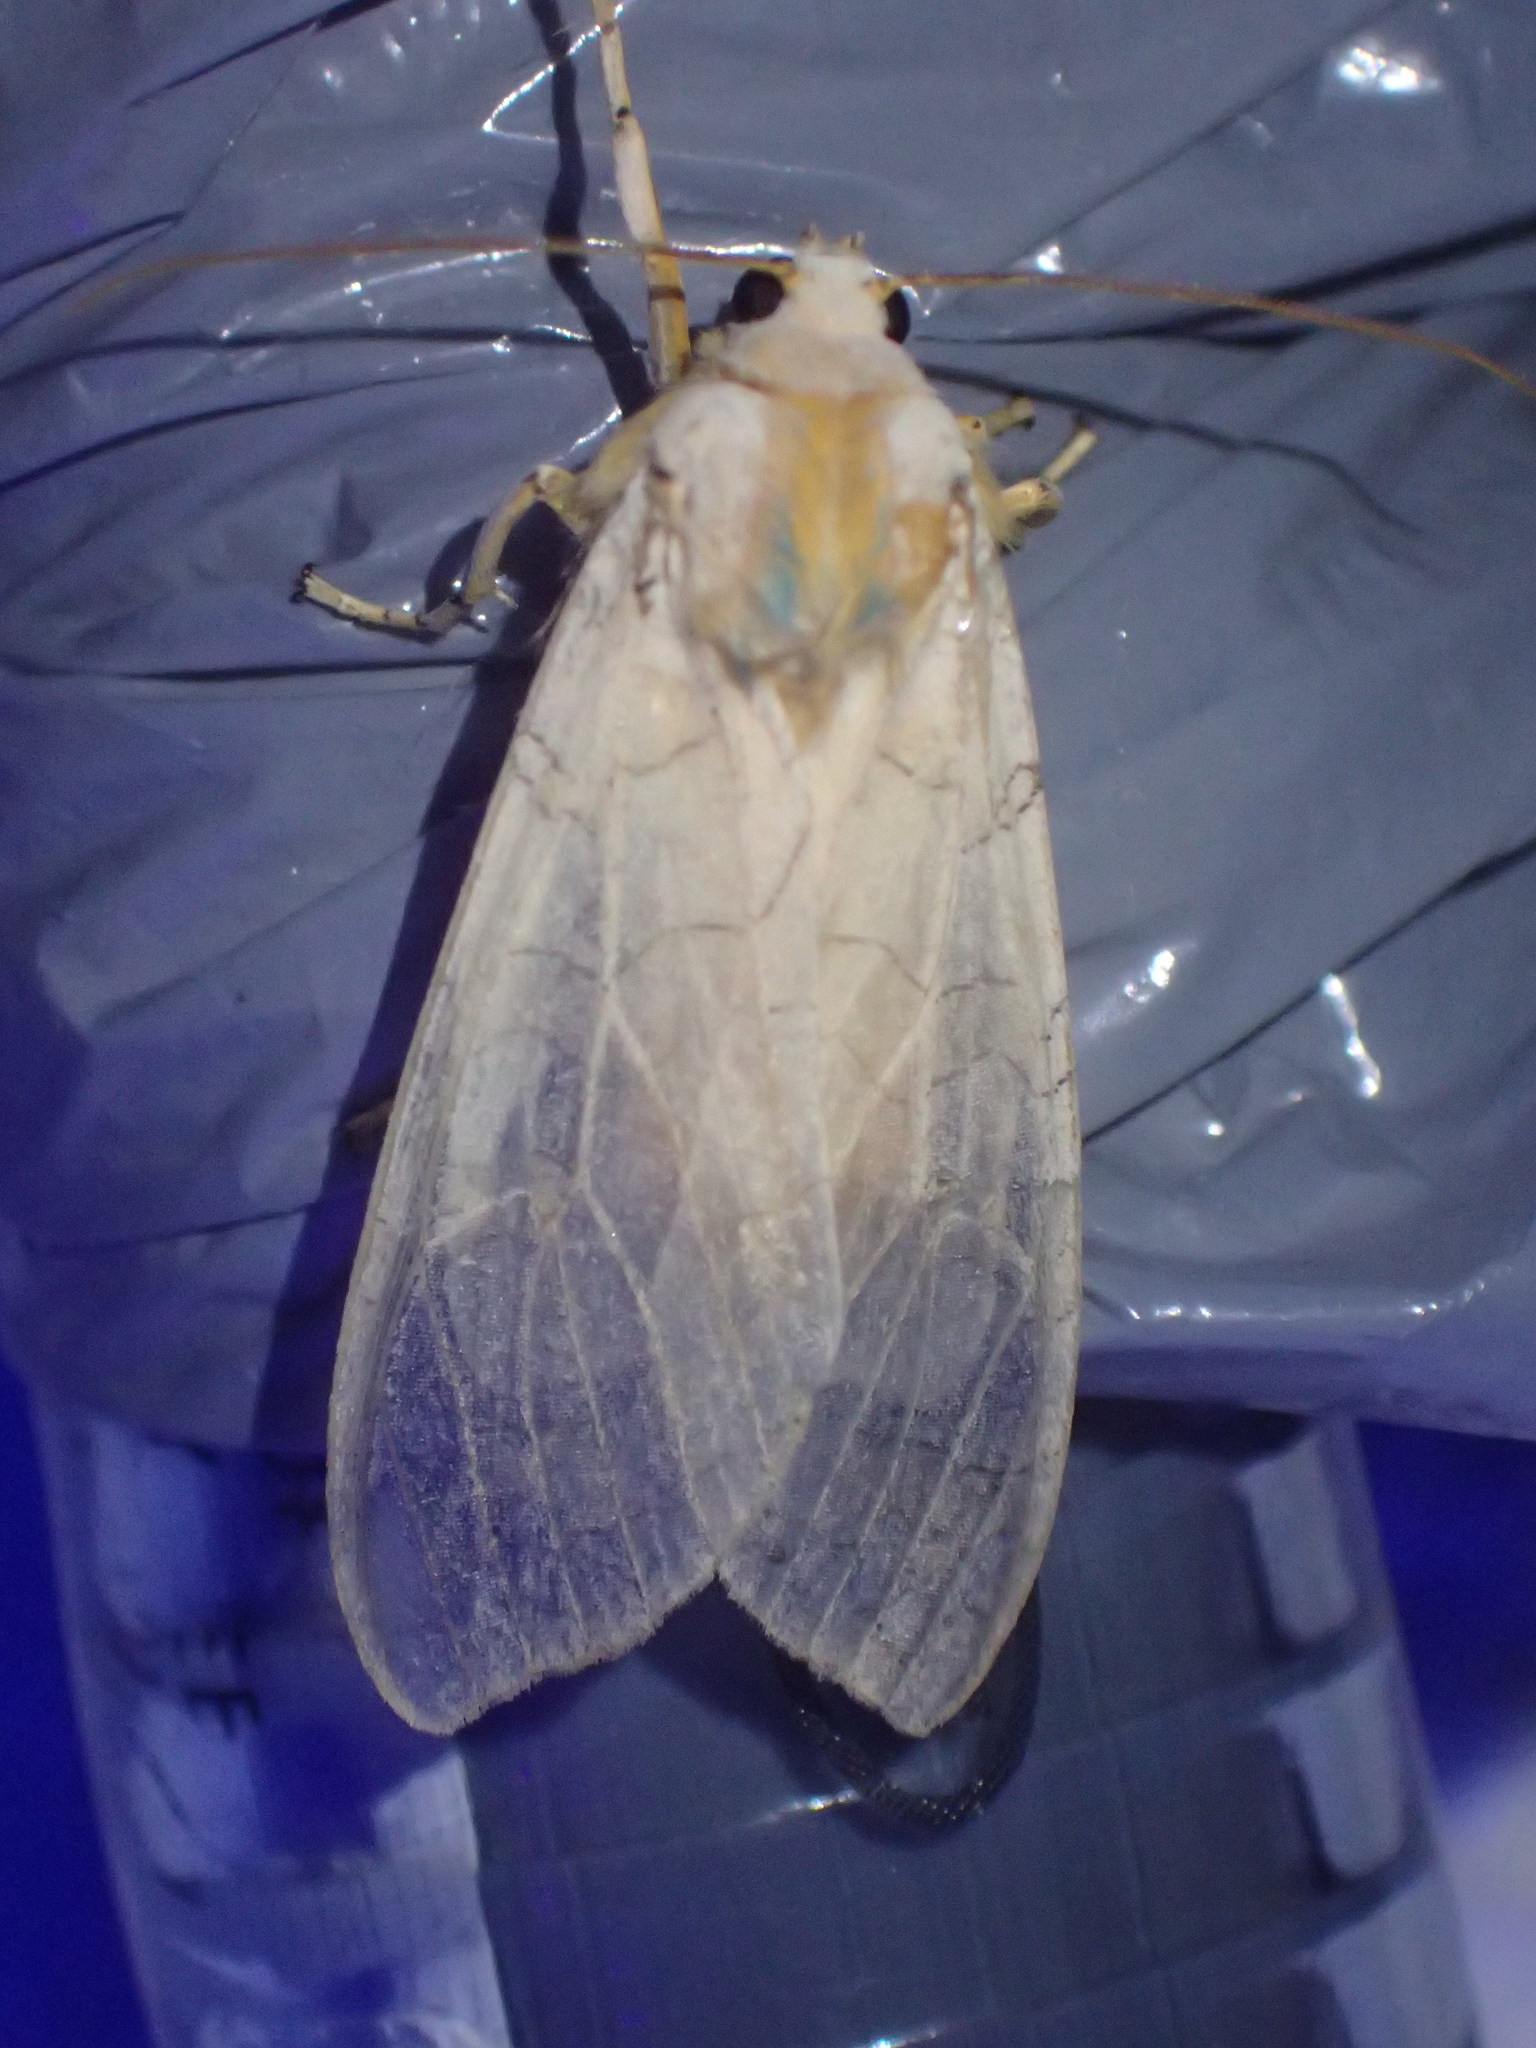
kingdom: Animalia
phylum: Arthropoda
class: Insecta
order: Lepidoptera
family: Erebidae
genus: Halysidota
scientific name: Halysidota tessellaris
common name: Banded tussock moth
